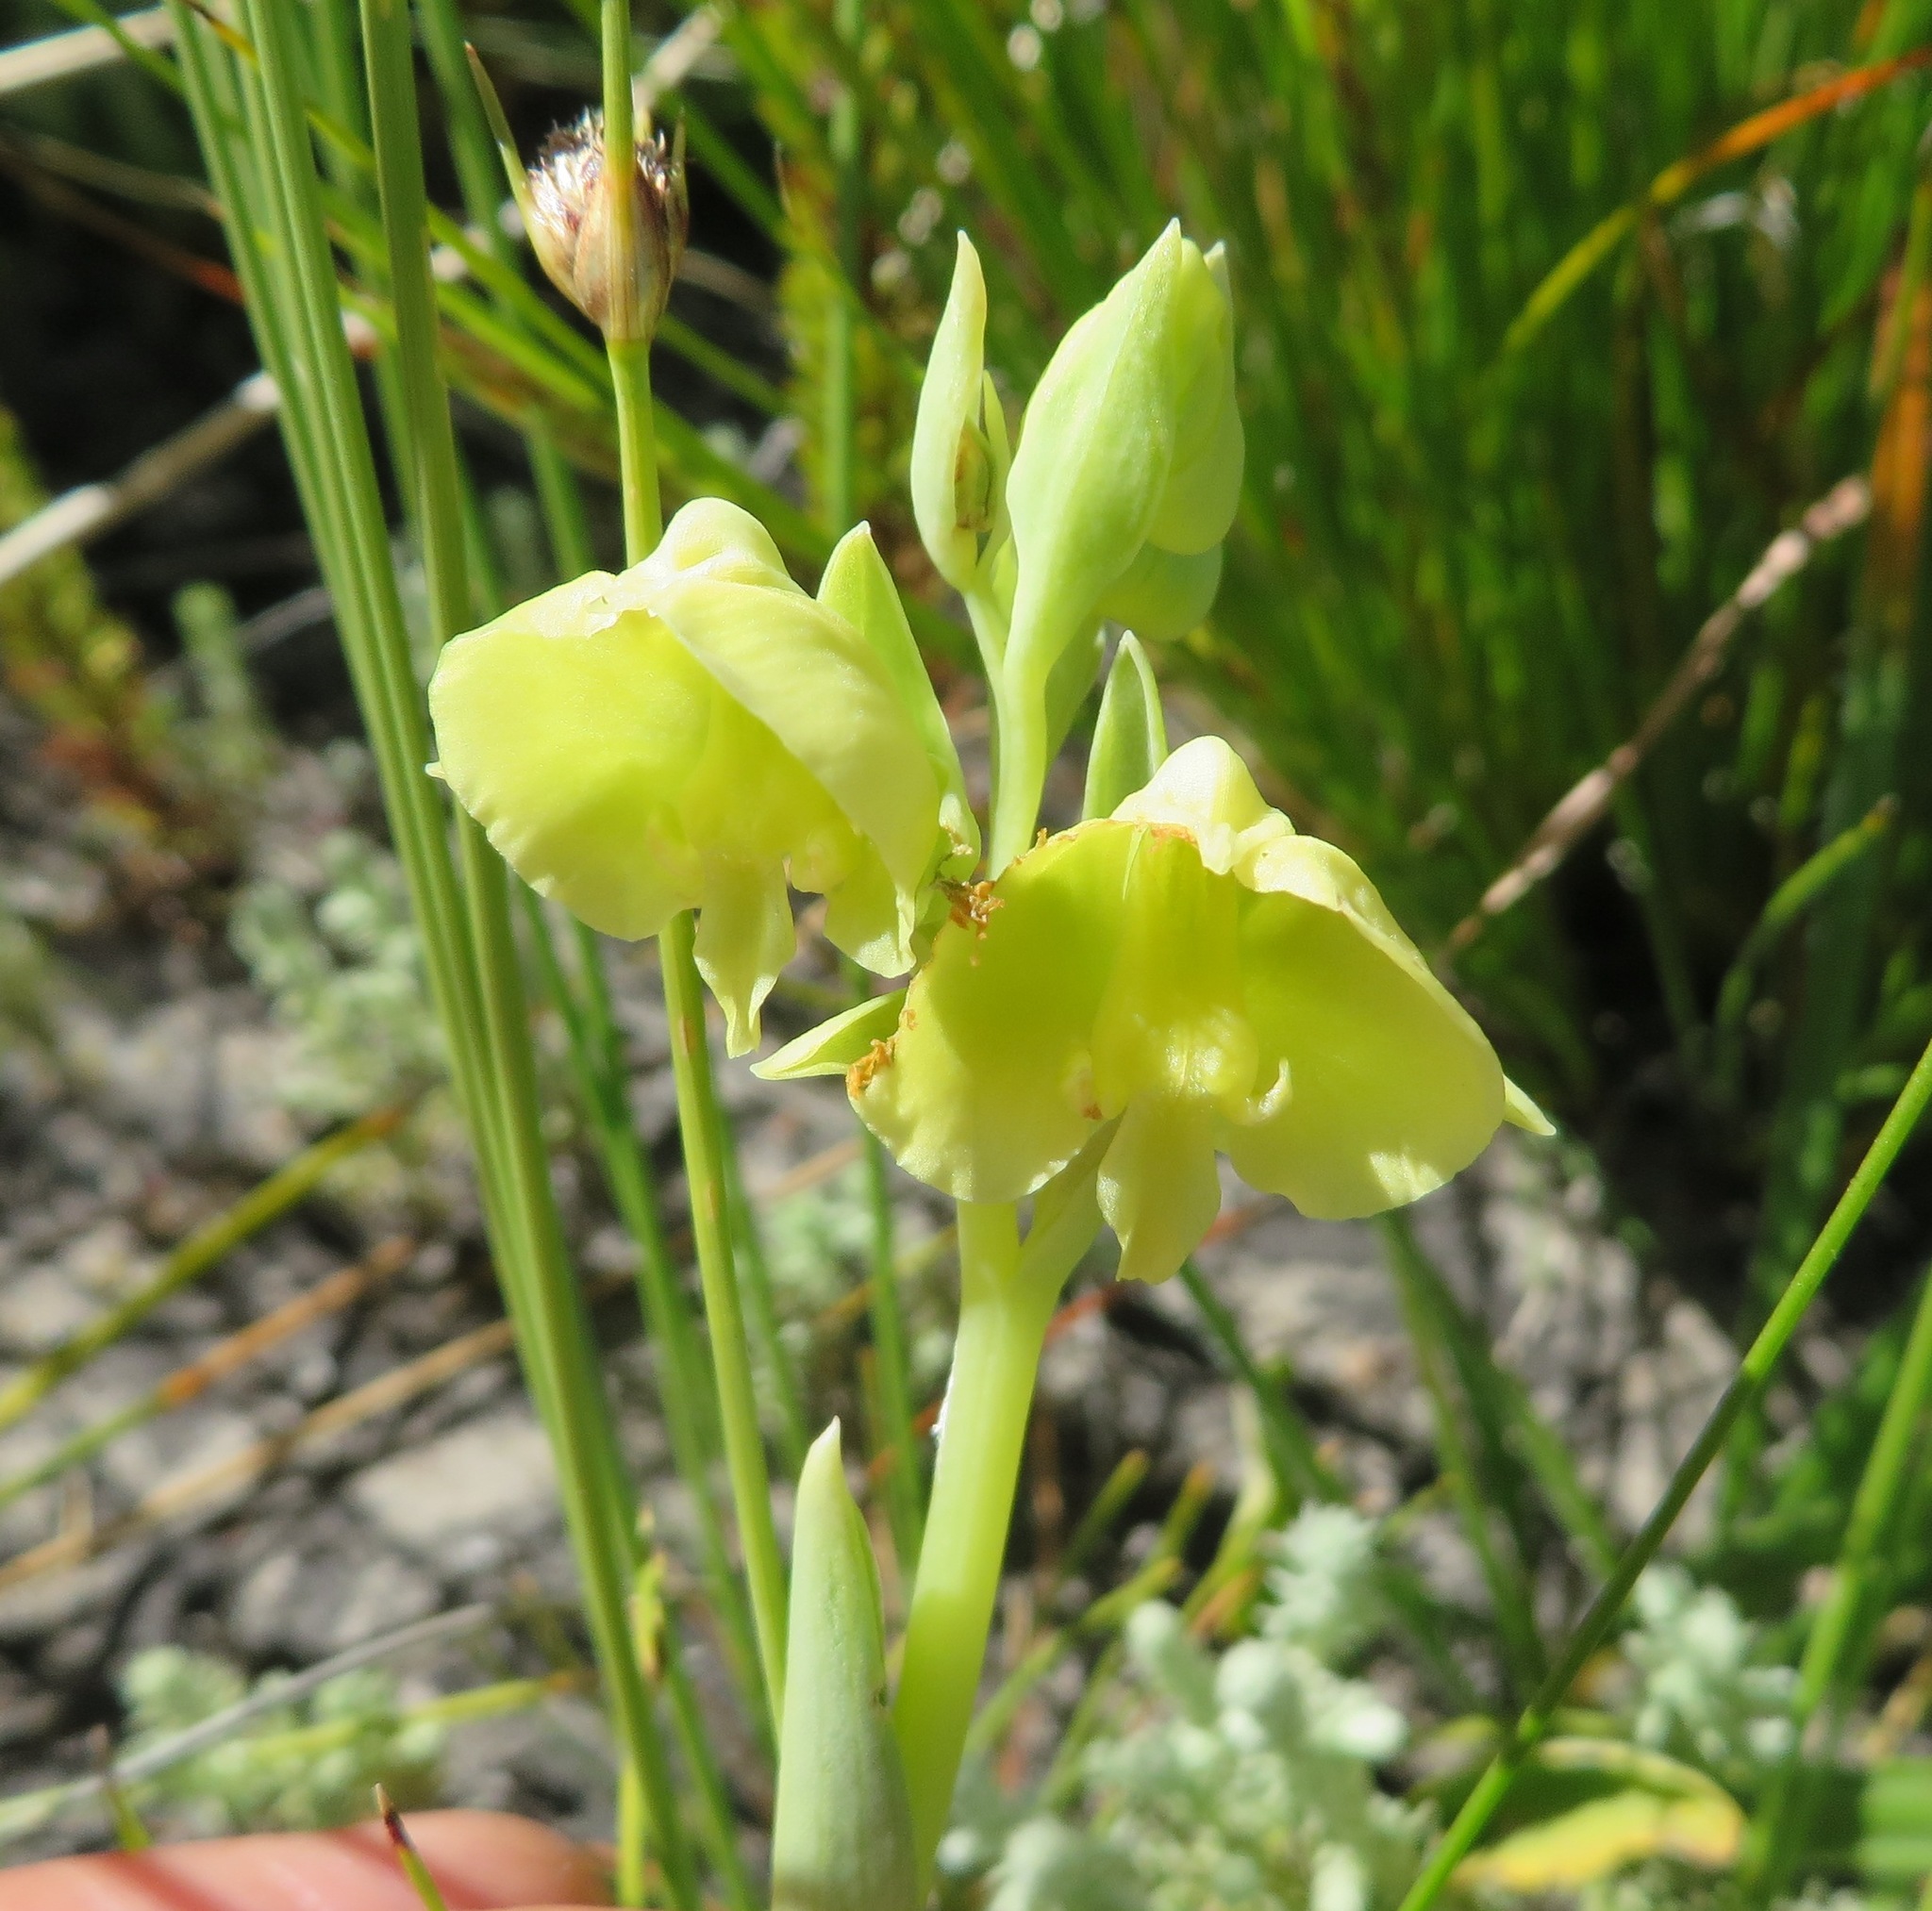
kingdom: Plantae
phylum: Tracheophyta
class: Liliopsida
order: Asparagales
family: Orchidaceae
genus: Pterygodium
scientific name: Pterygodium catholicum
